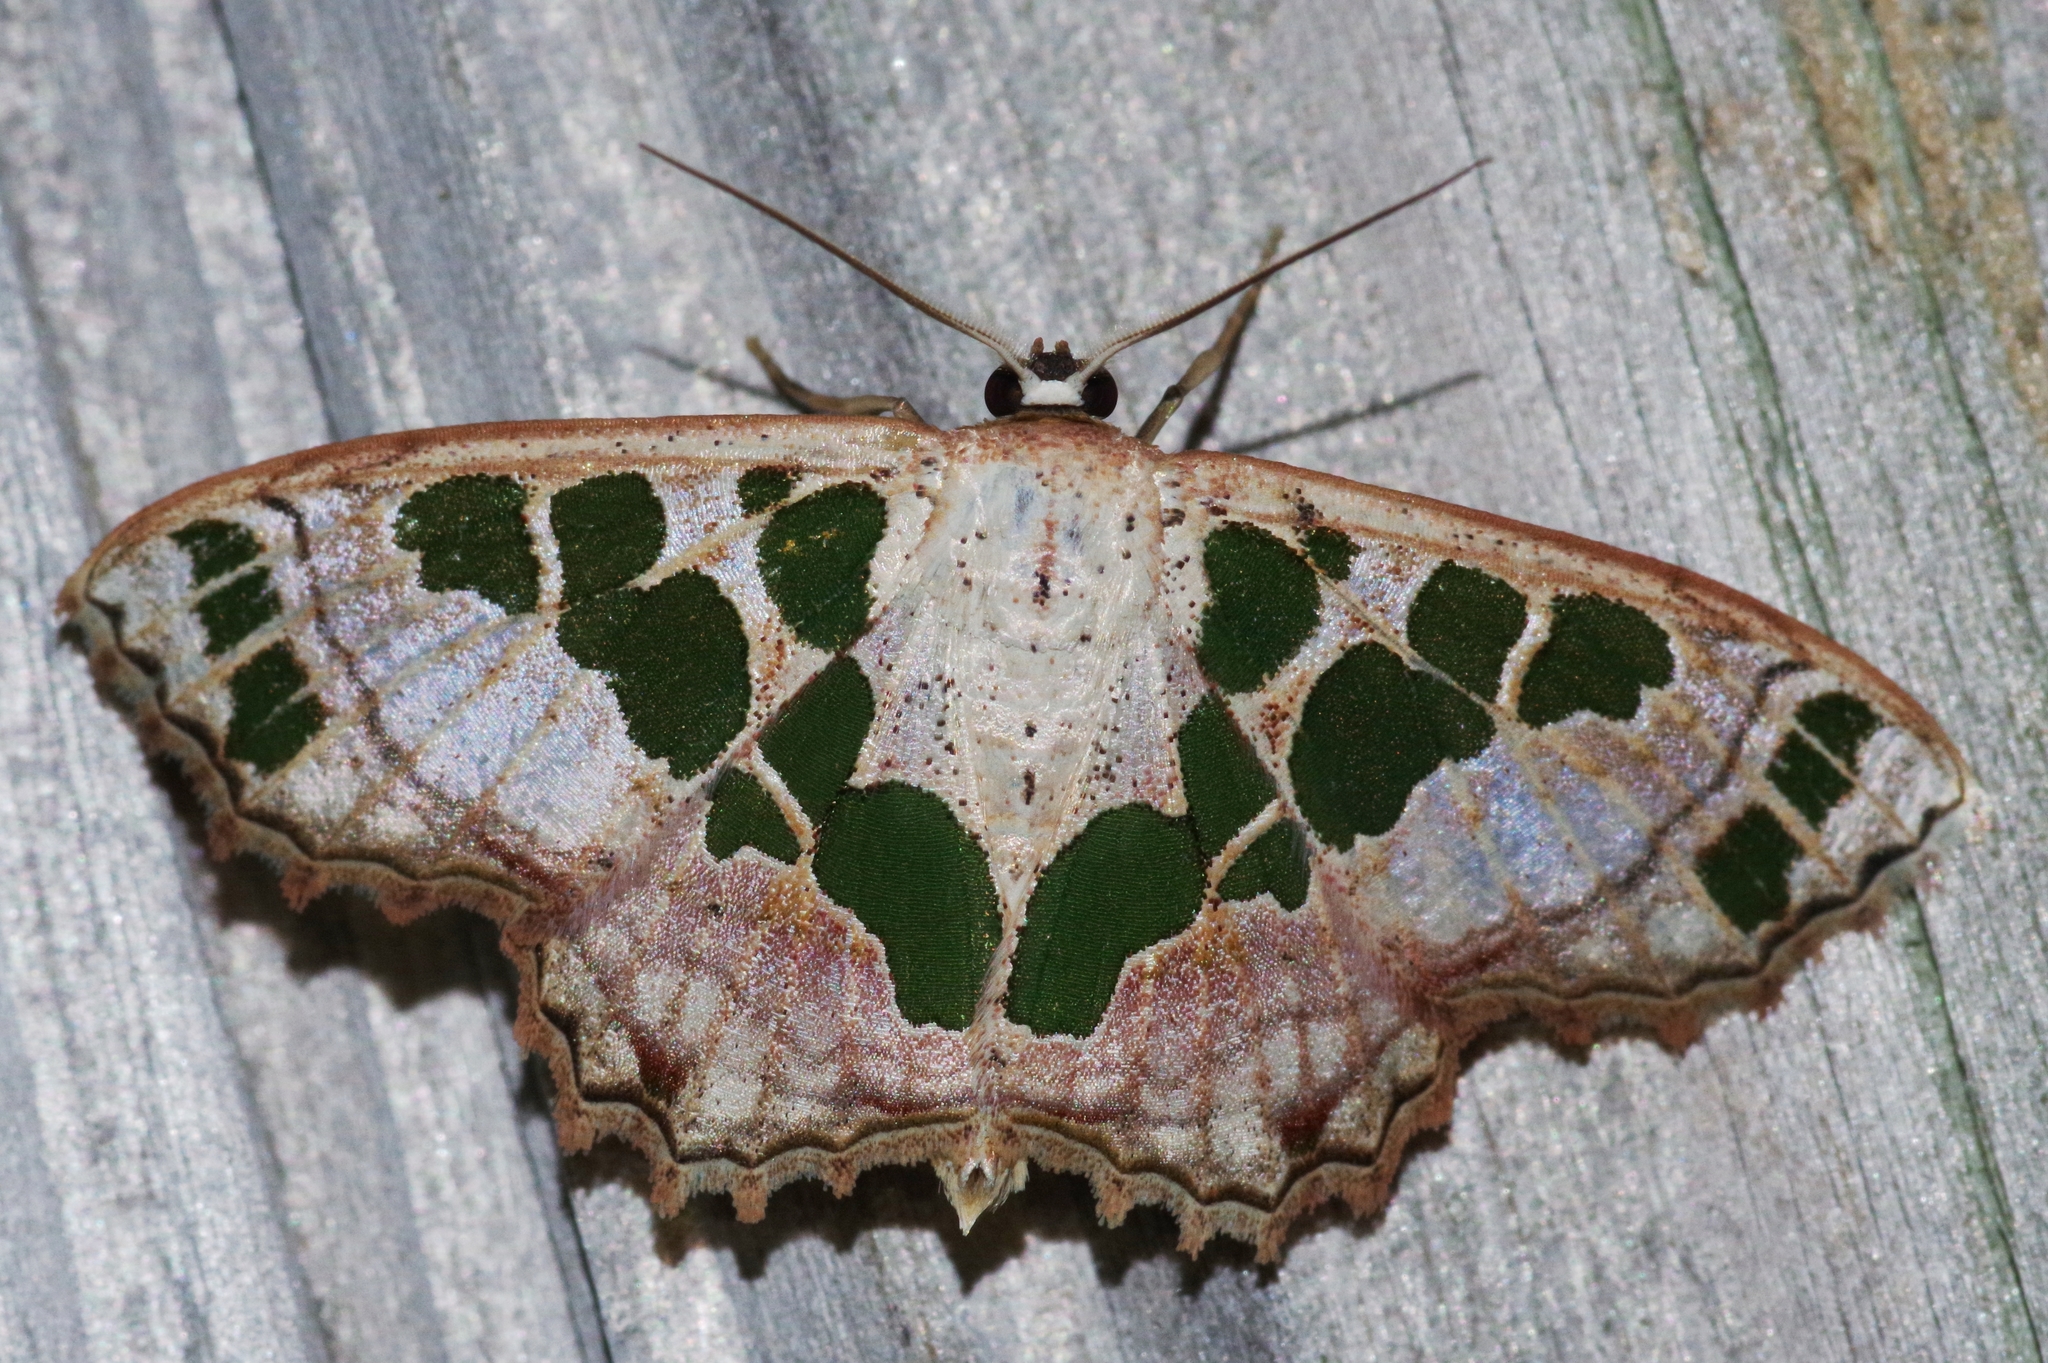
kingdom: Animalia
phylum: Arthropoda
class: Insecta
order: Lepidoptera
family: Geometridae
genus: Scopula
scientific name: Scopula divisaria
